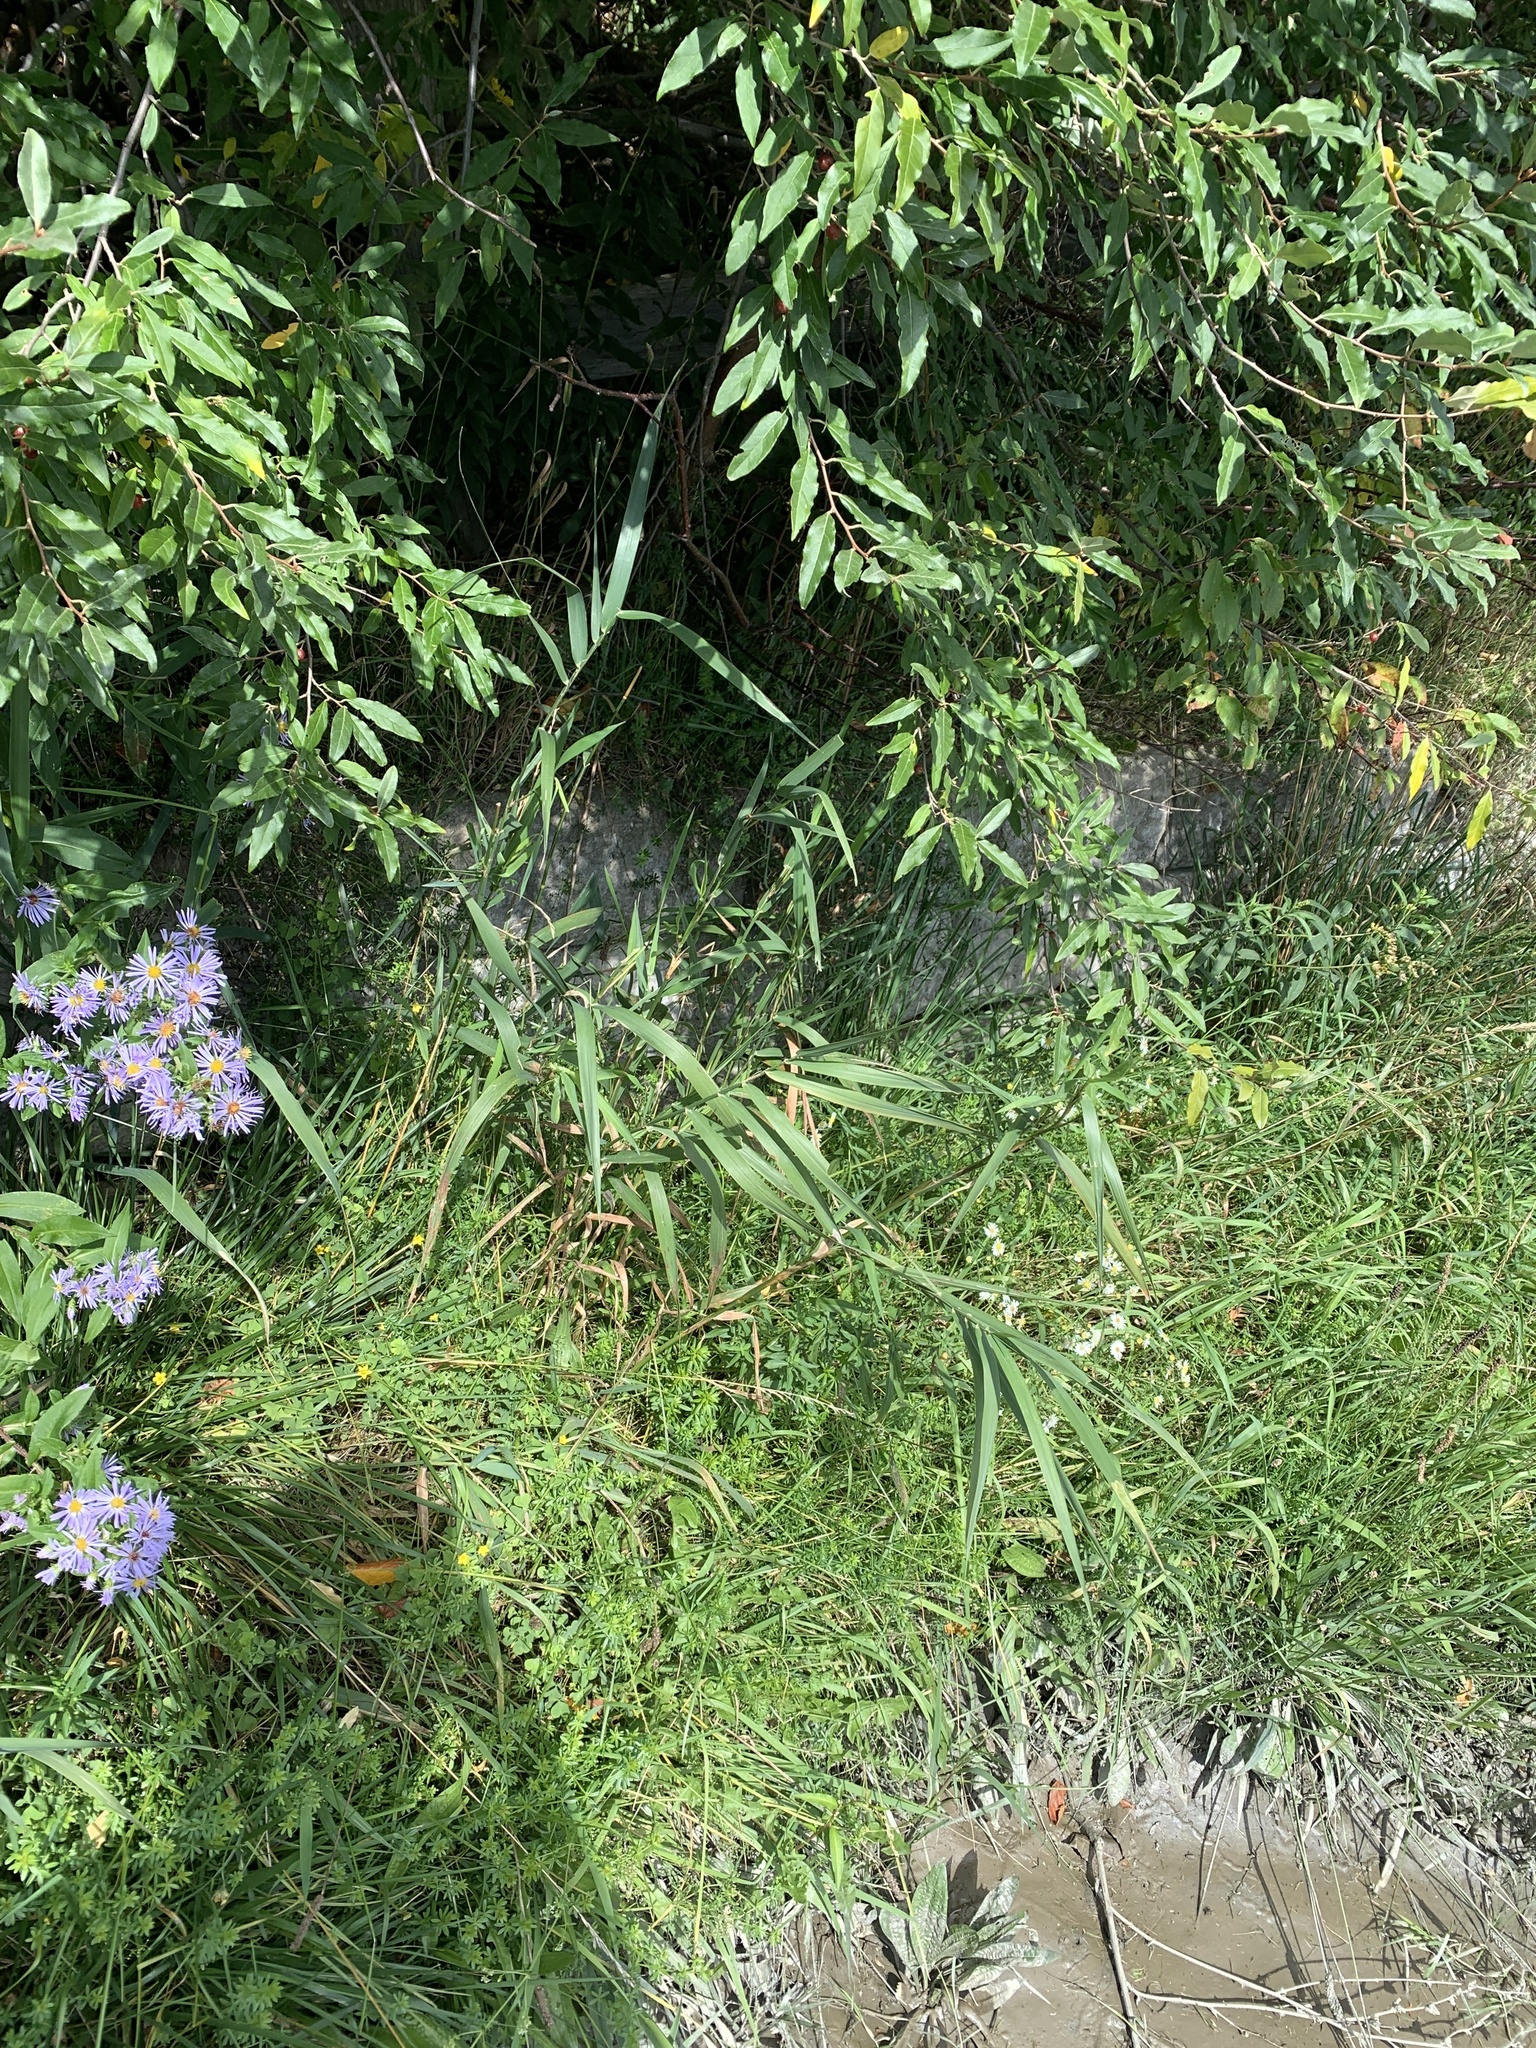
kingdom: Plantae
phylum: Tracheophyta
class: Liliopsida
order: Poales
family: Poaceae
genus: Phalaris
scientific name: Phalaris arundinacea
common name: Reed canary-grass
